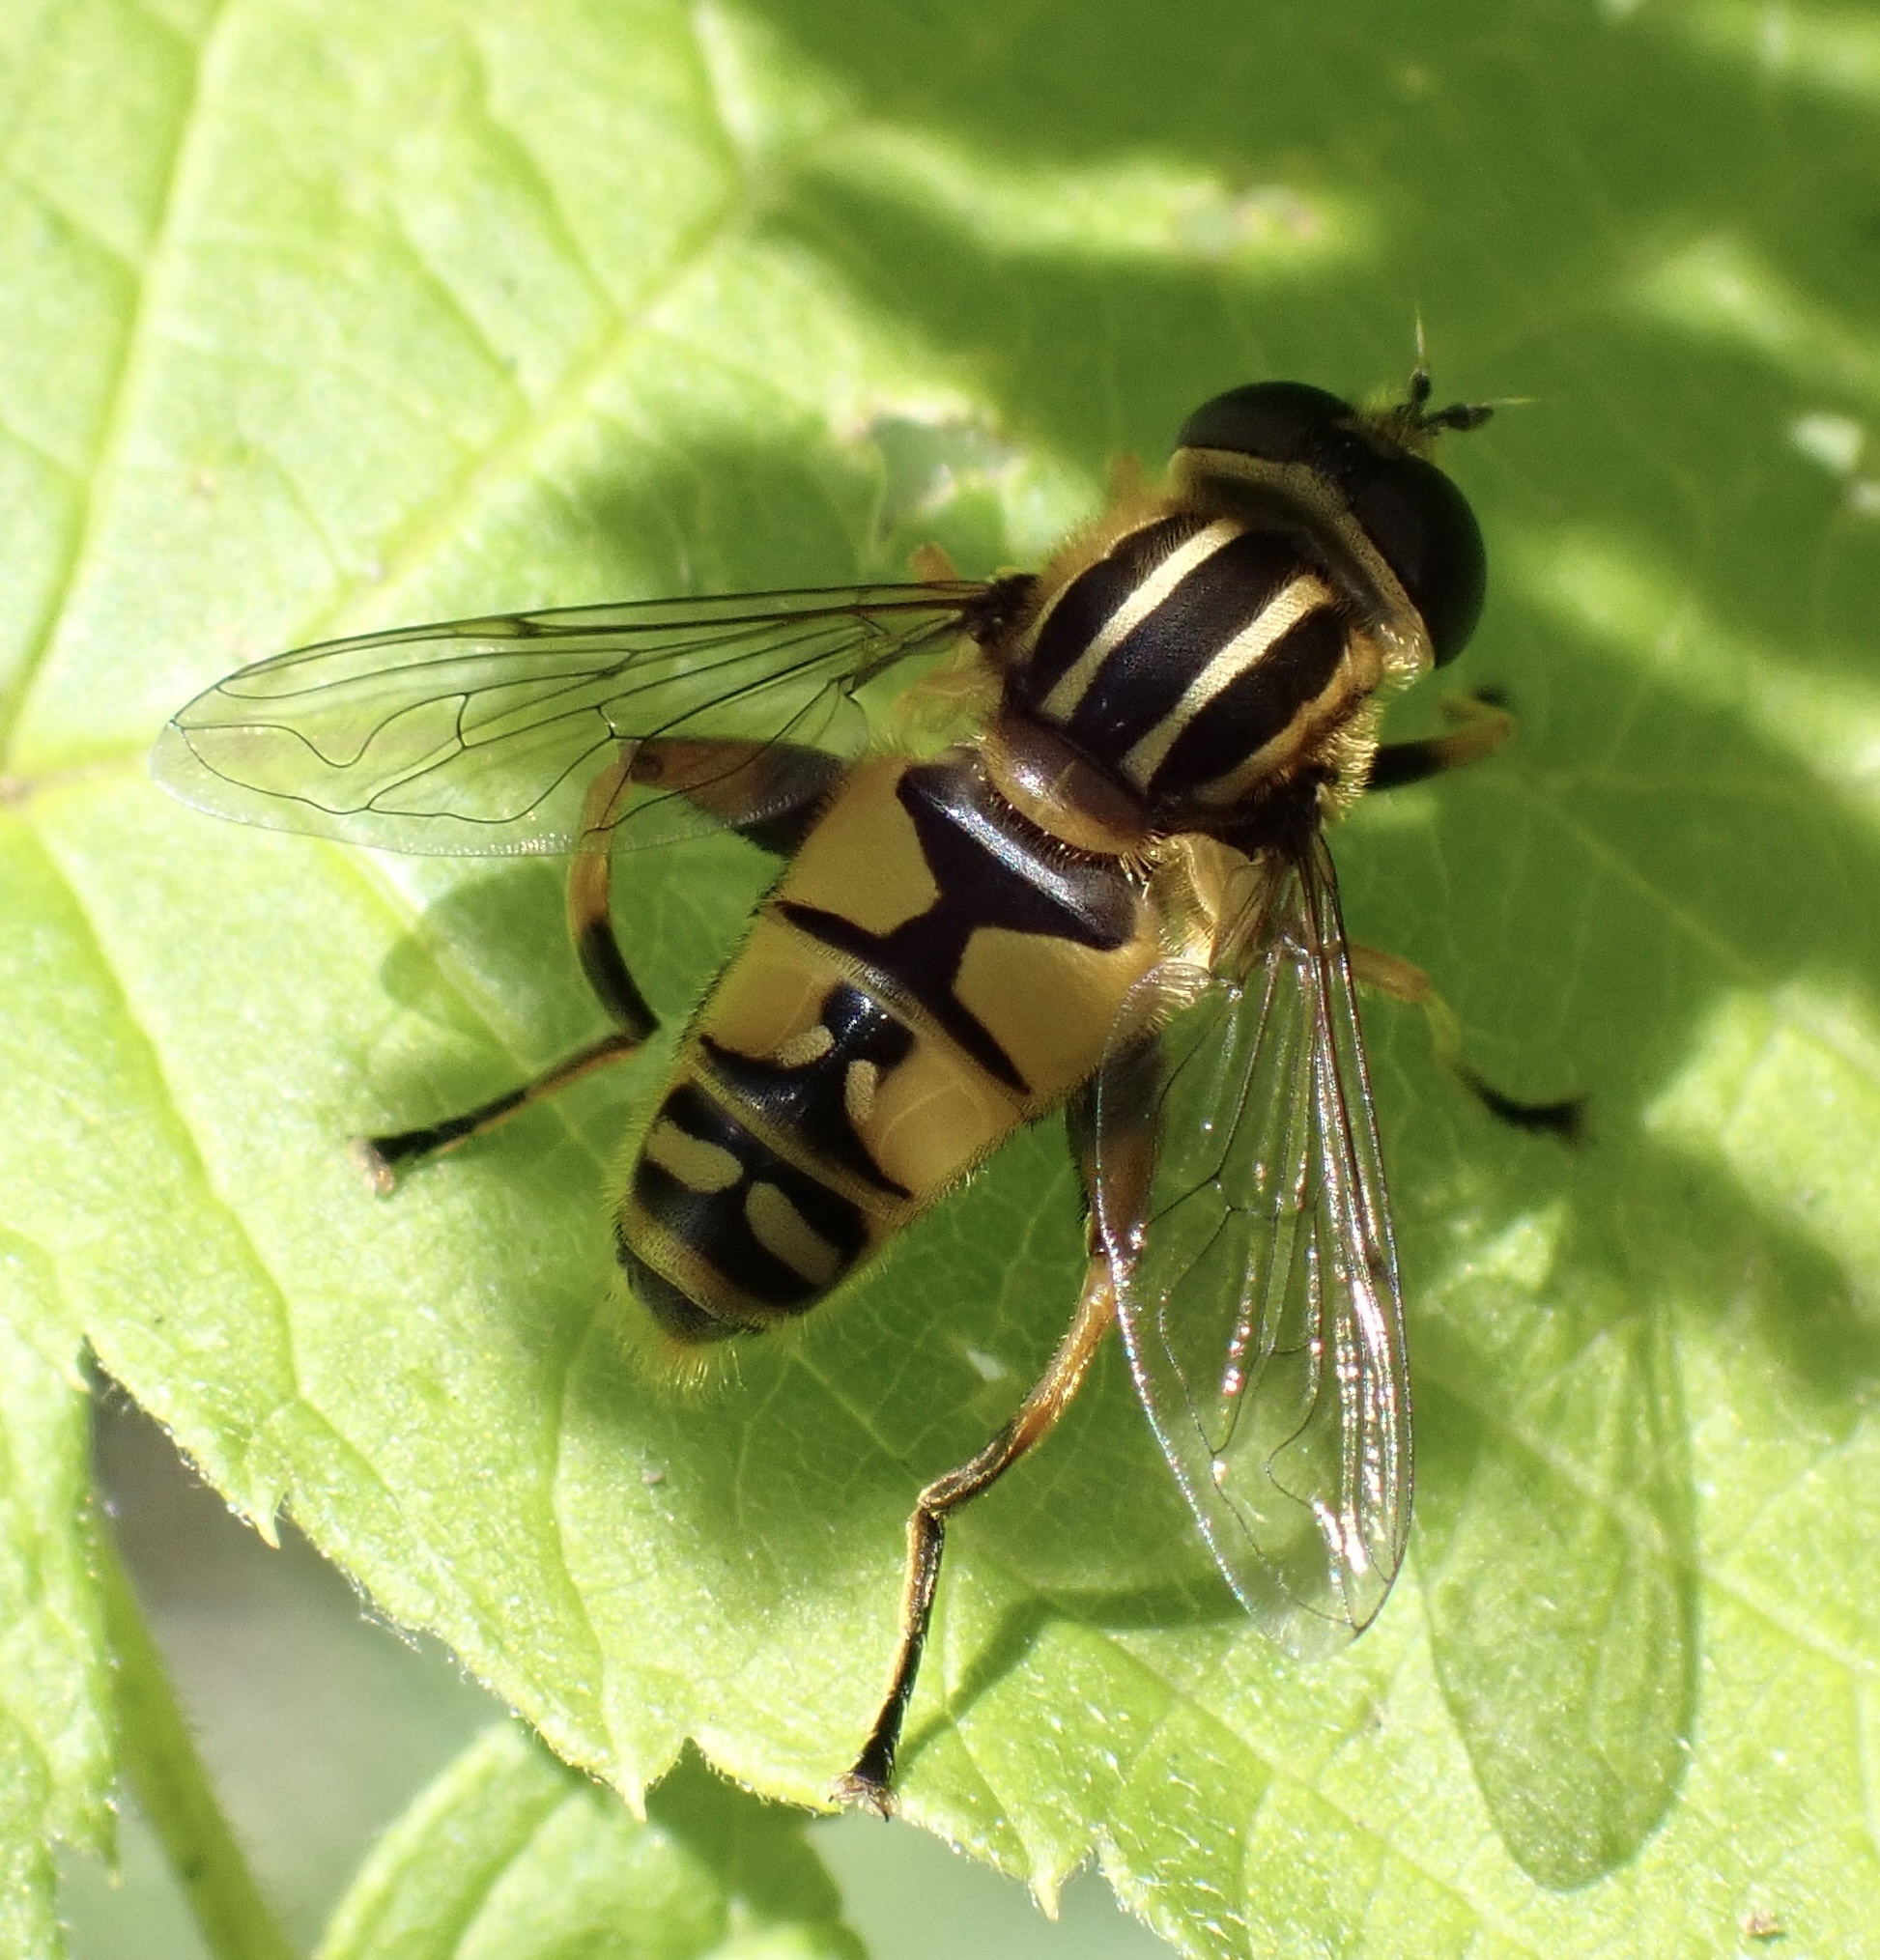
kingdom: Animalia
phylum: Arthropoda
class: Insecta
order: Diptera
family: Syrphidae
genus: Helophilus
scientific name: Helophilus pendulus
